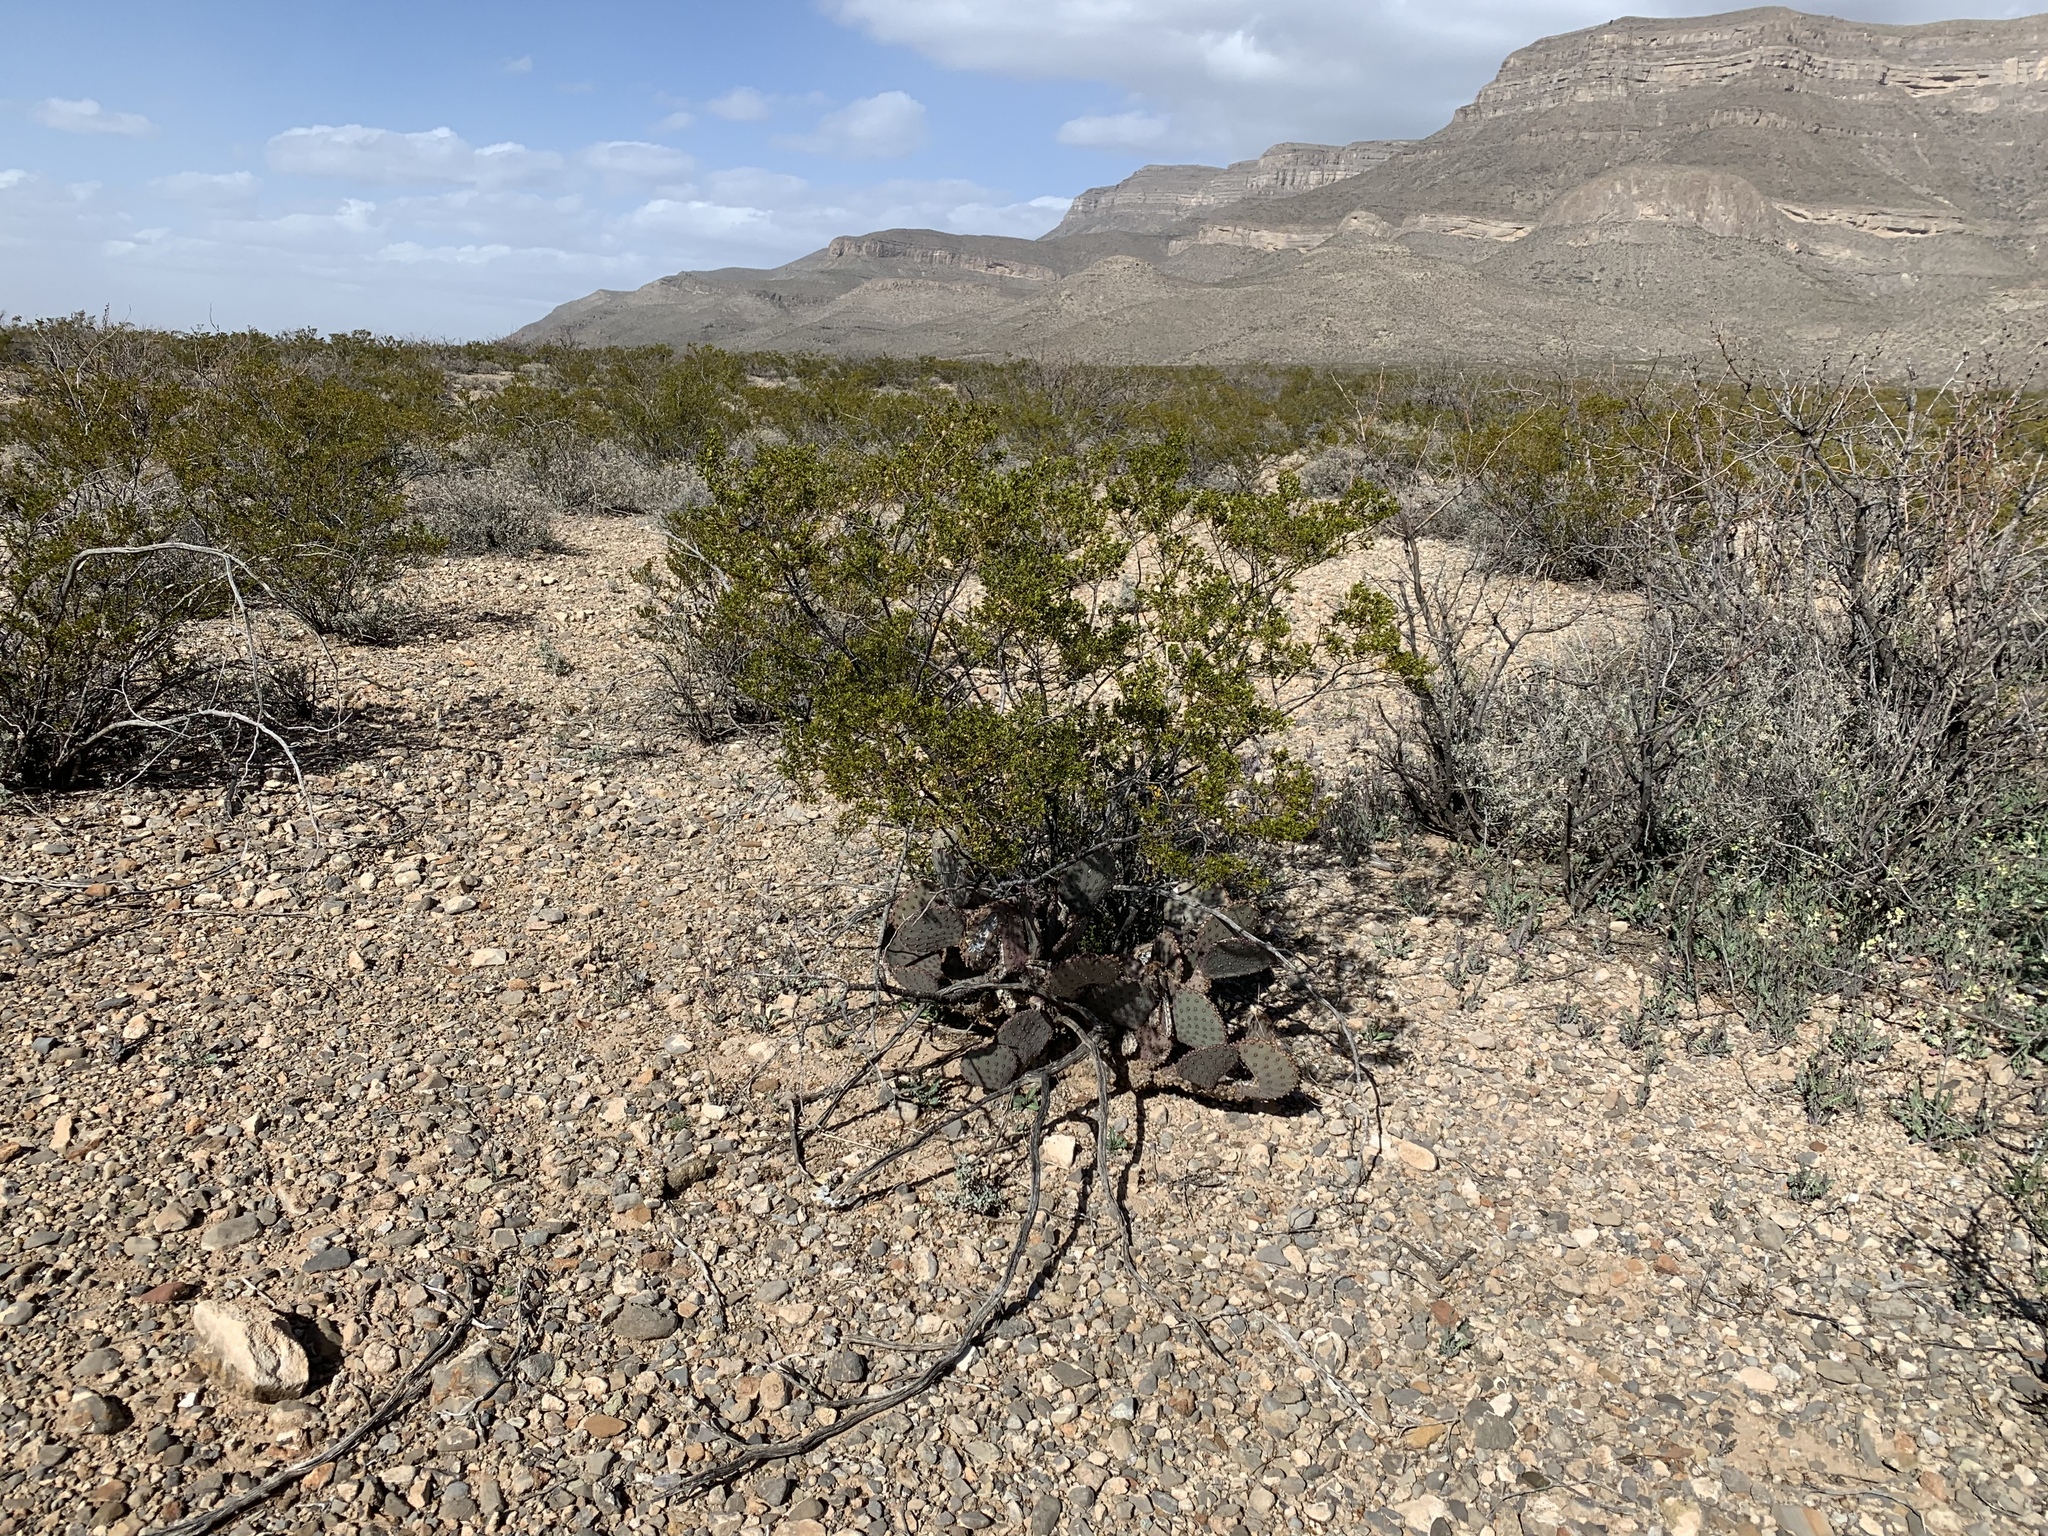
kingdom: Plantae
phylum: Tracheophyta
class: Magnoliopsida
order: Zygophyllales
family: Zygophyllaceae
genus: Larrea
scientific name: Larrea tridentata
